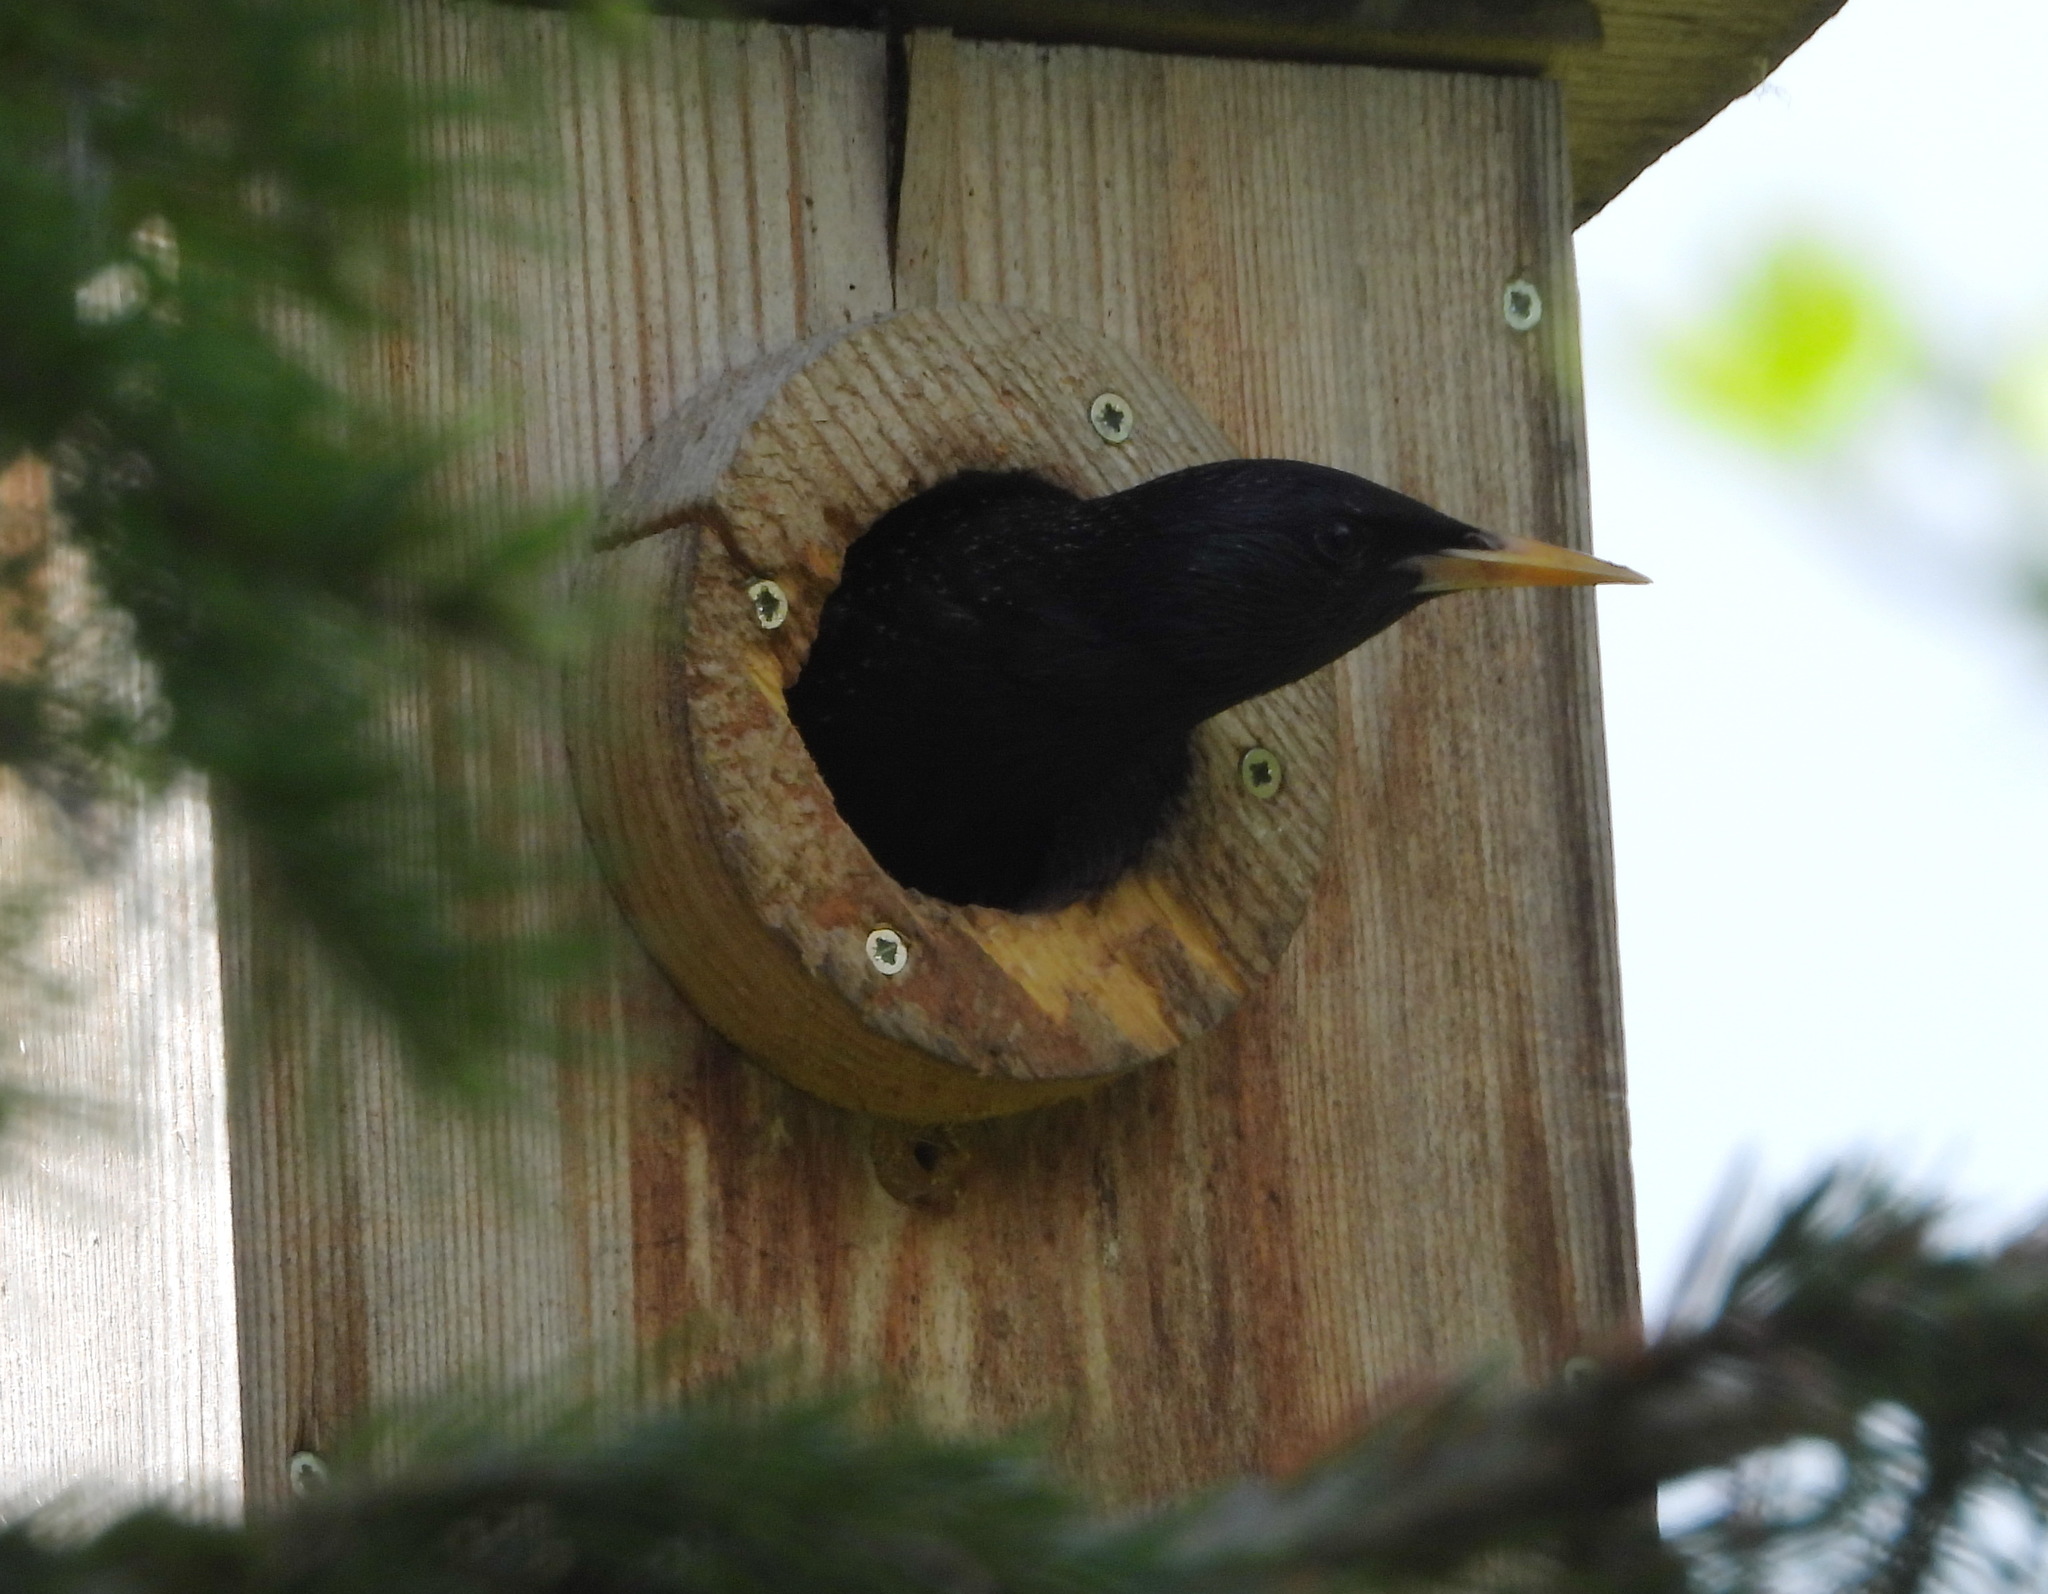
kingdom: Animalia
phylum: Chordata
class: Aves
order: Passeriformes
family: Sturnidae
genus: Sturnus
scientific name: Sturnus vulgaris
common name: Common starling
